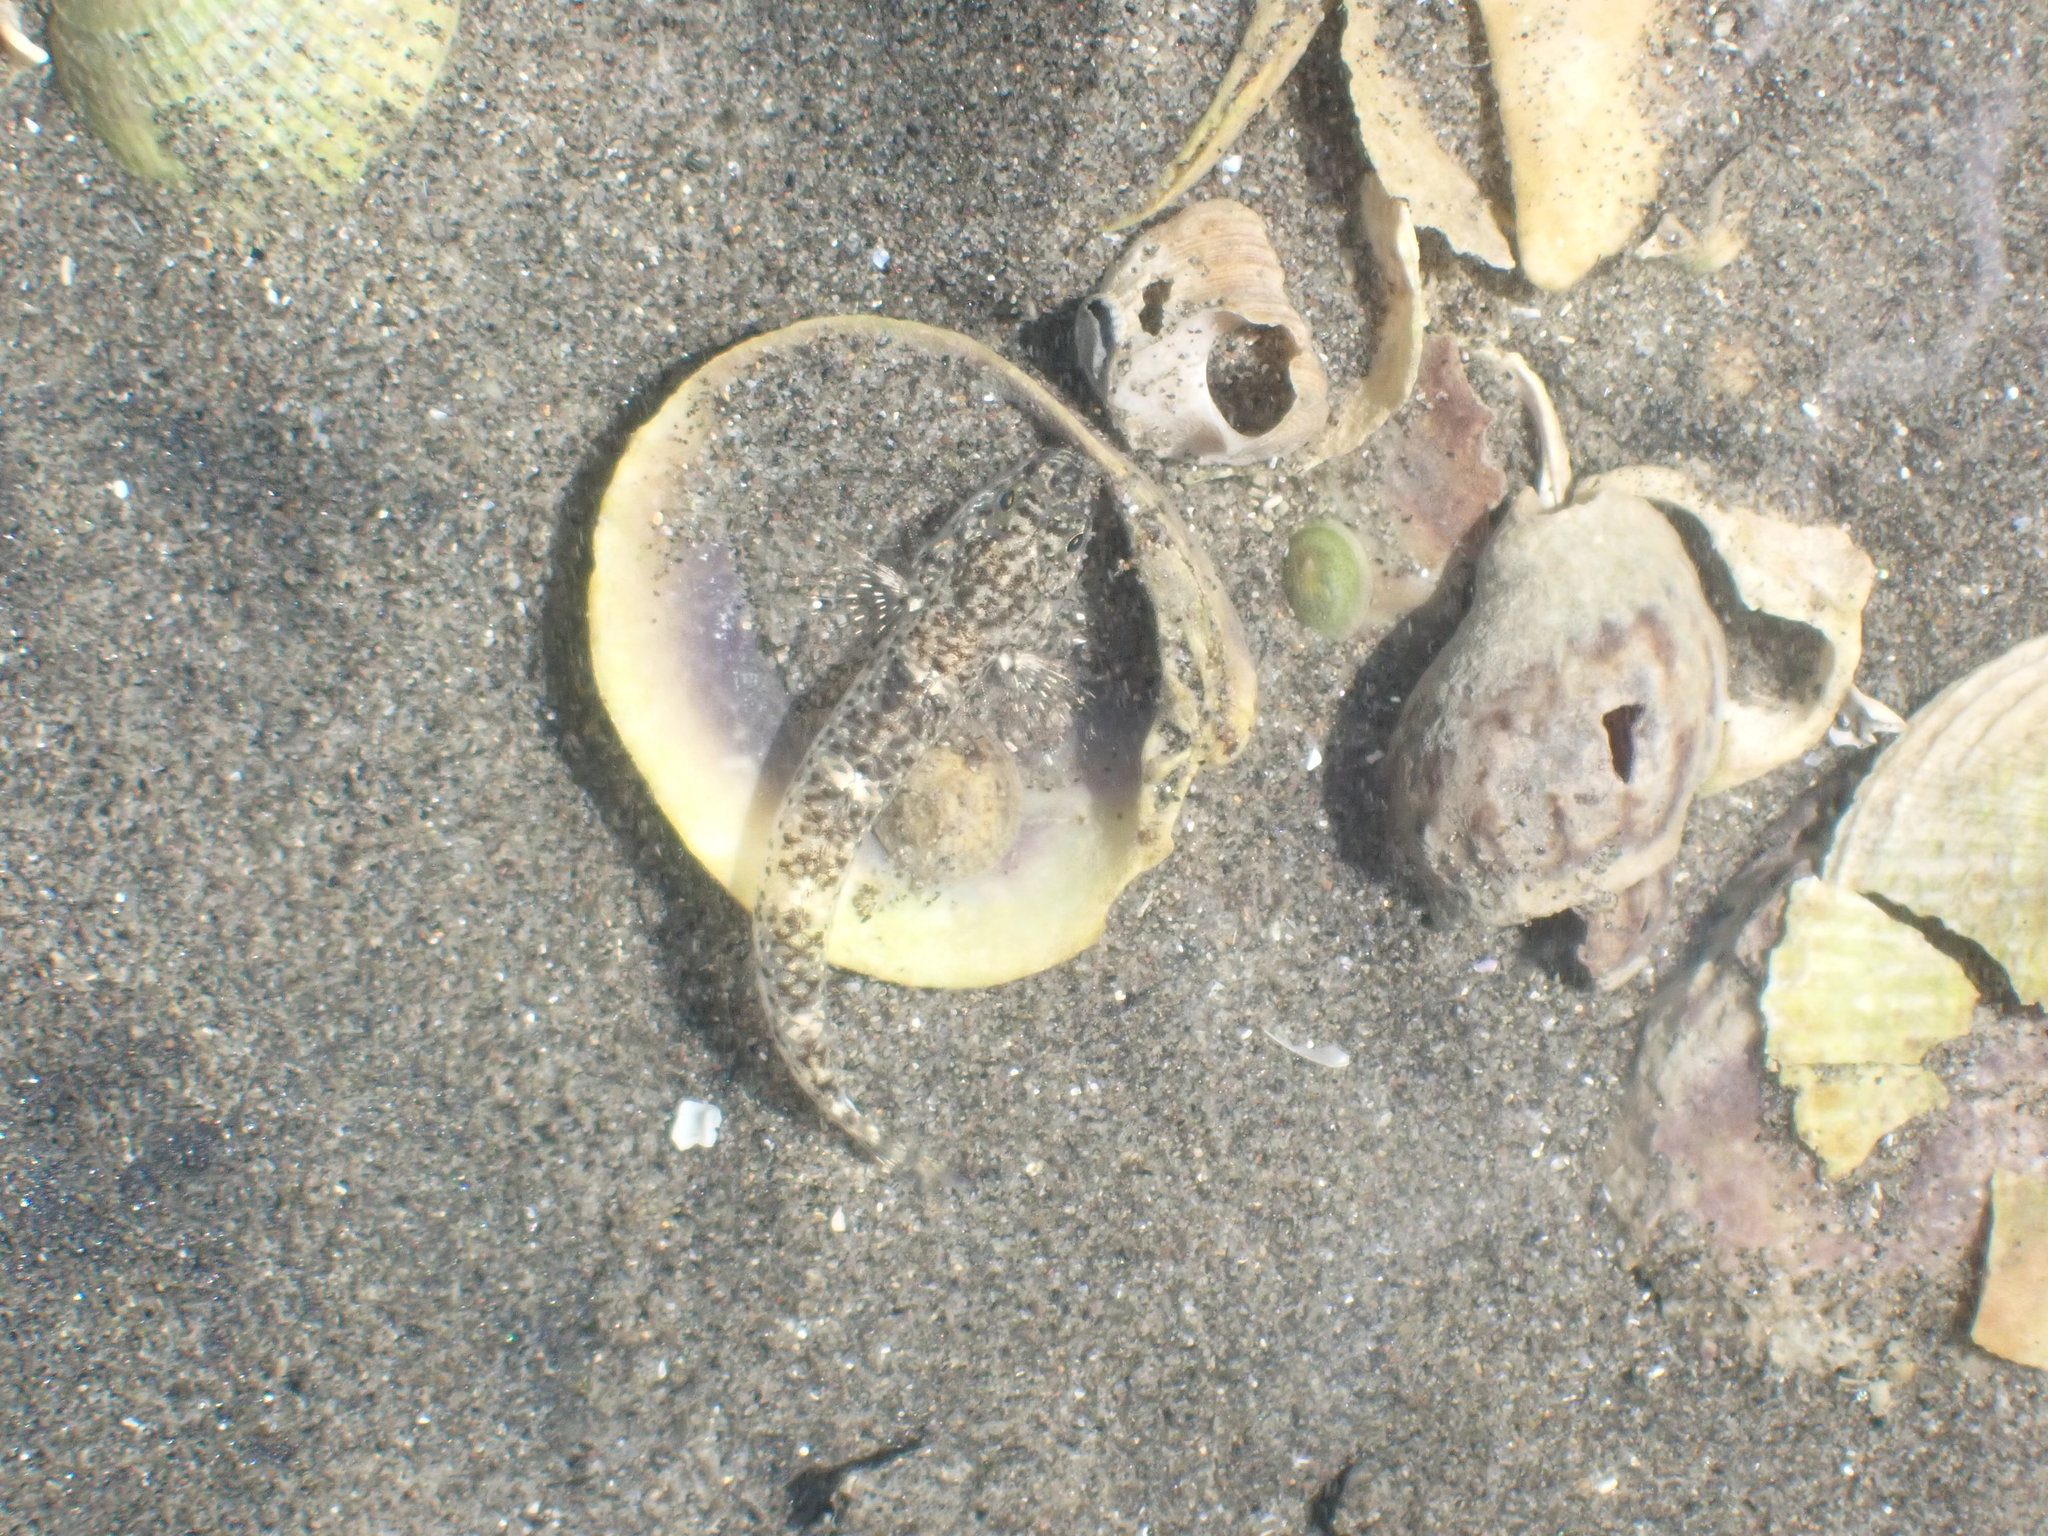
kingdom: Animalia
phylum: Chordata
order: Perciformes
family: Gobiidae
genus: Favonigobius
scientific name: Favonigobius exquisitus
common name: Exquisite sand-goby
